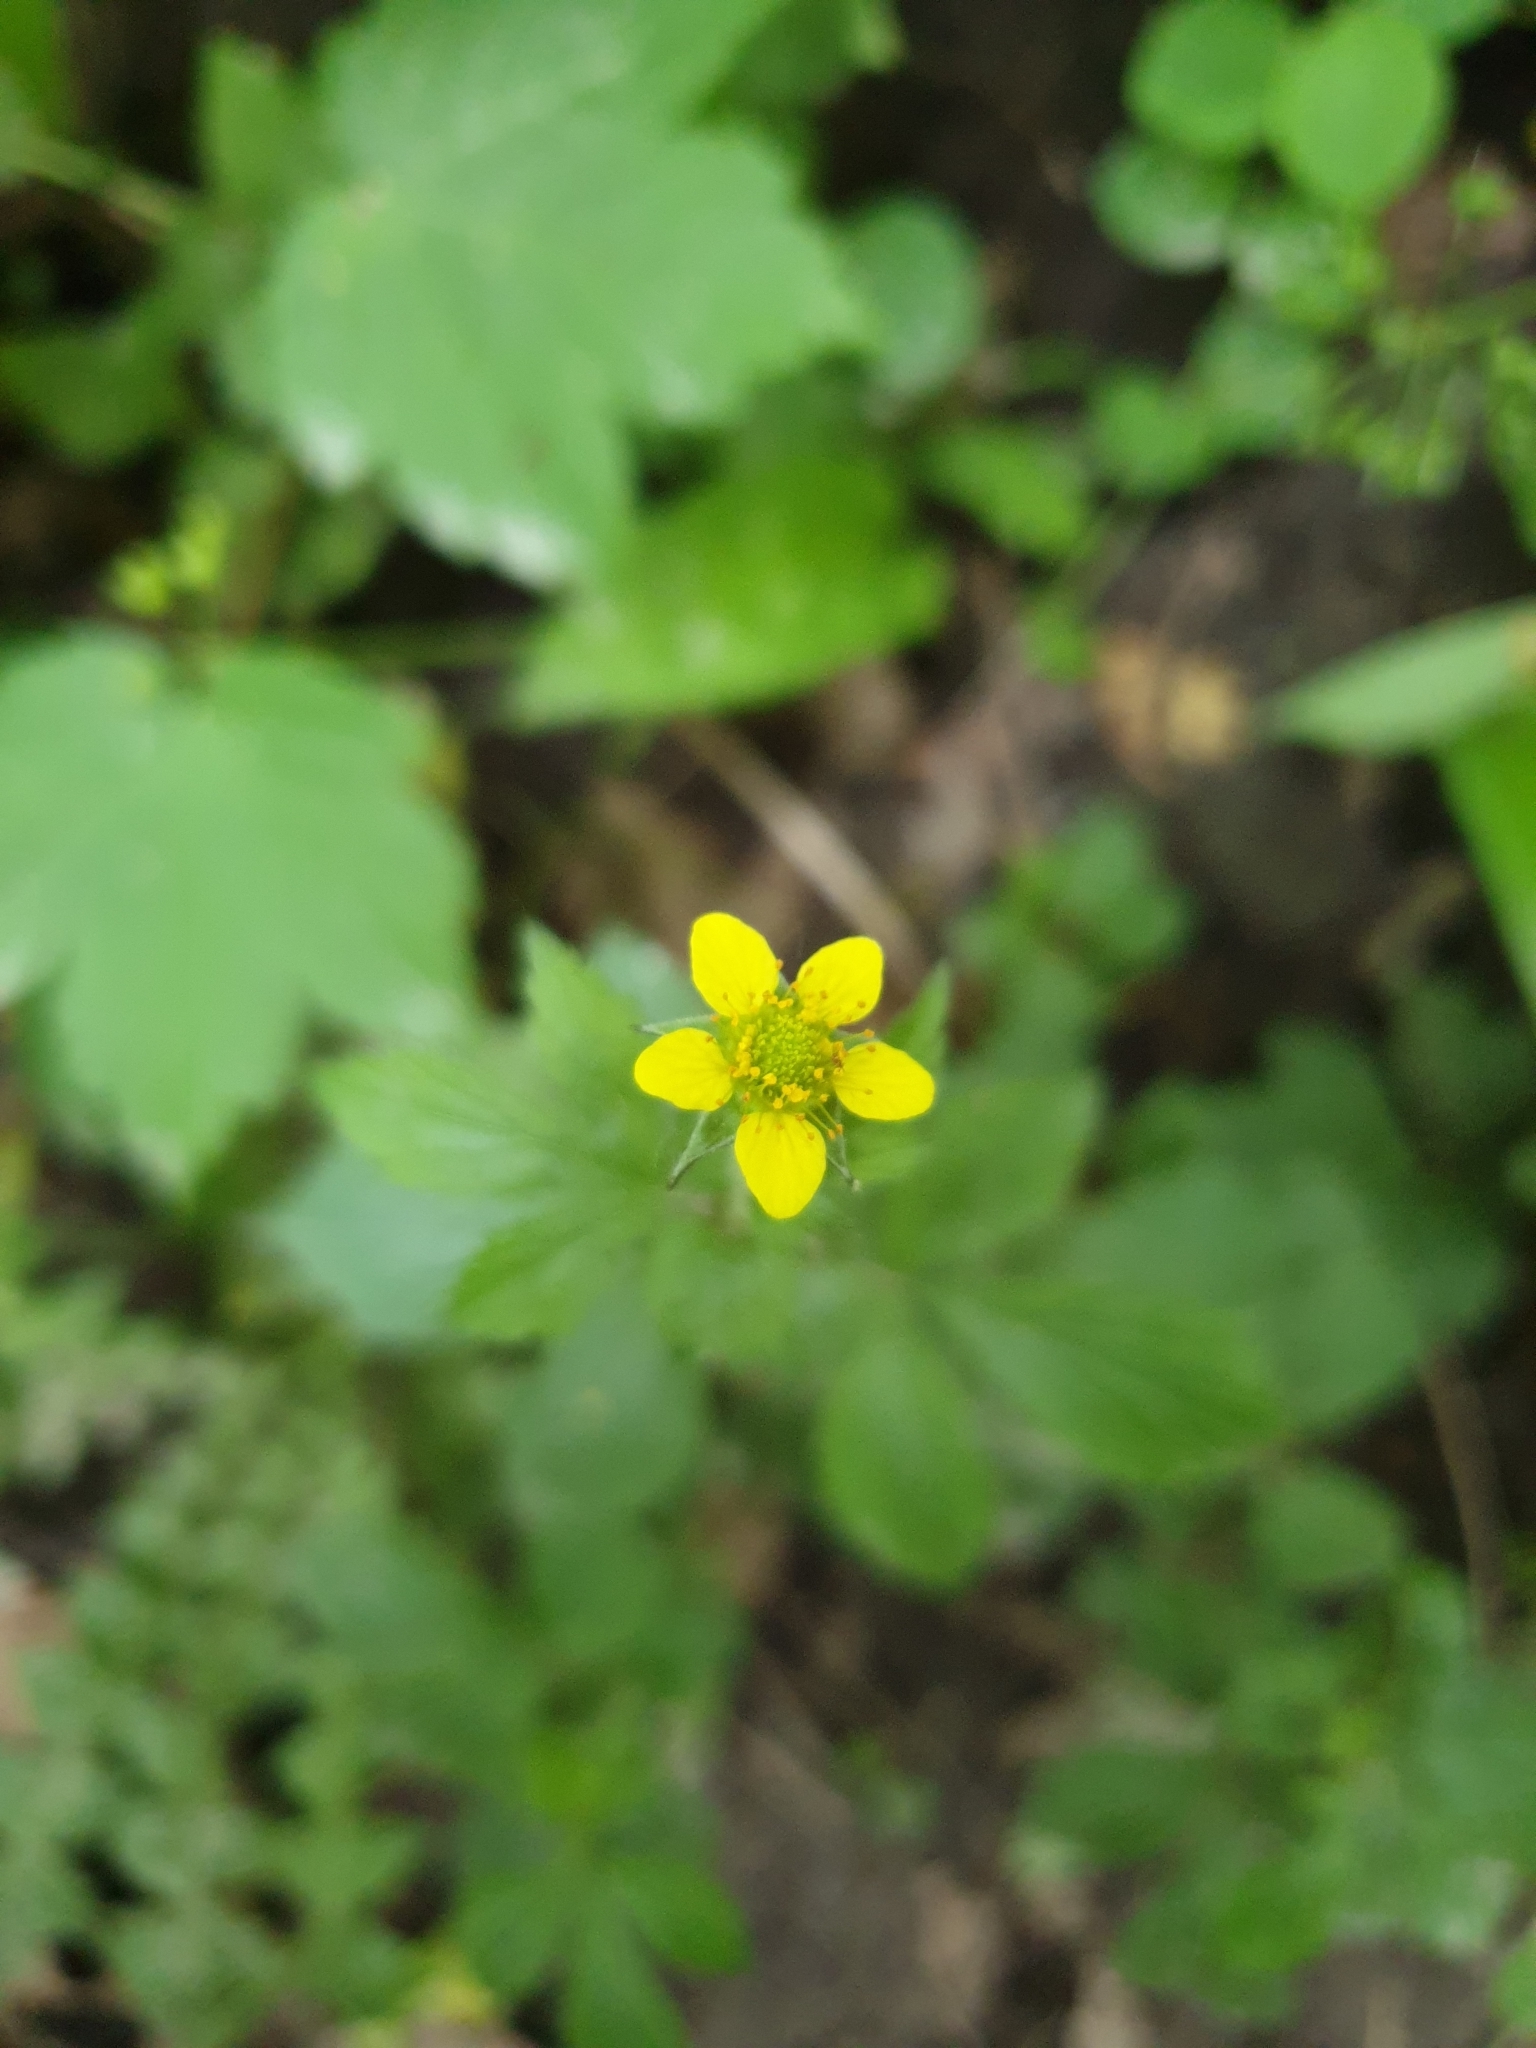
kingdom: Plantae
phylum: Tracheophyta
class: Magnoliopsida
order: Rosales
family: Rosaceae
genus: Geum
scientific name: Geum urbanum
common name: Wood avens
